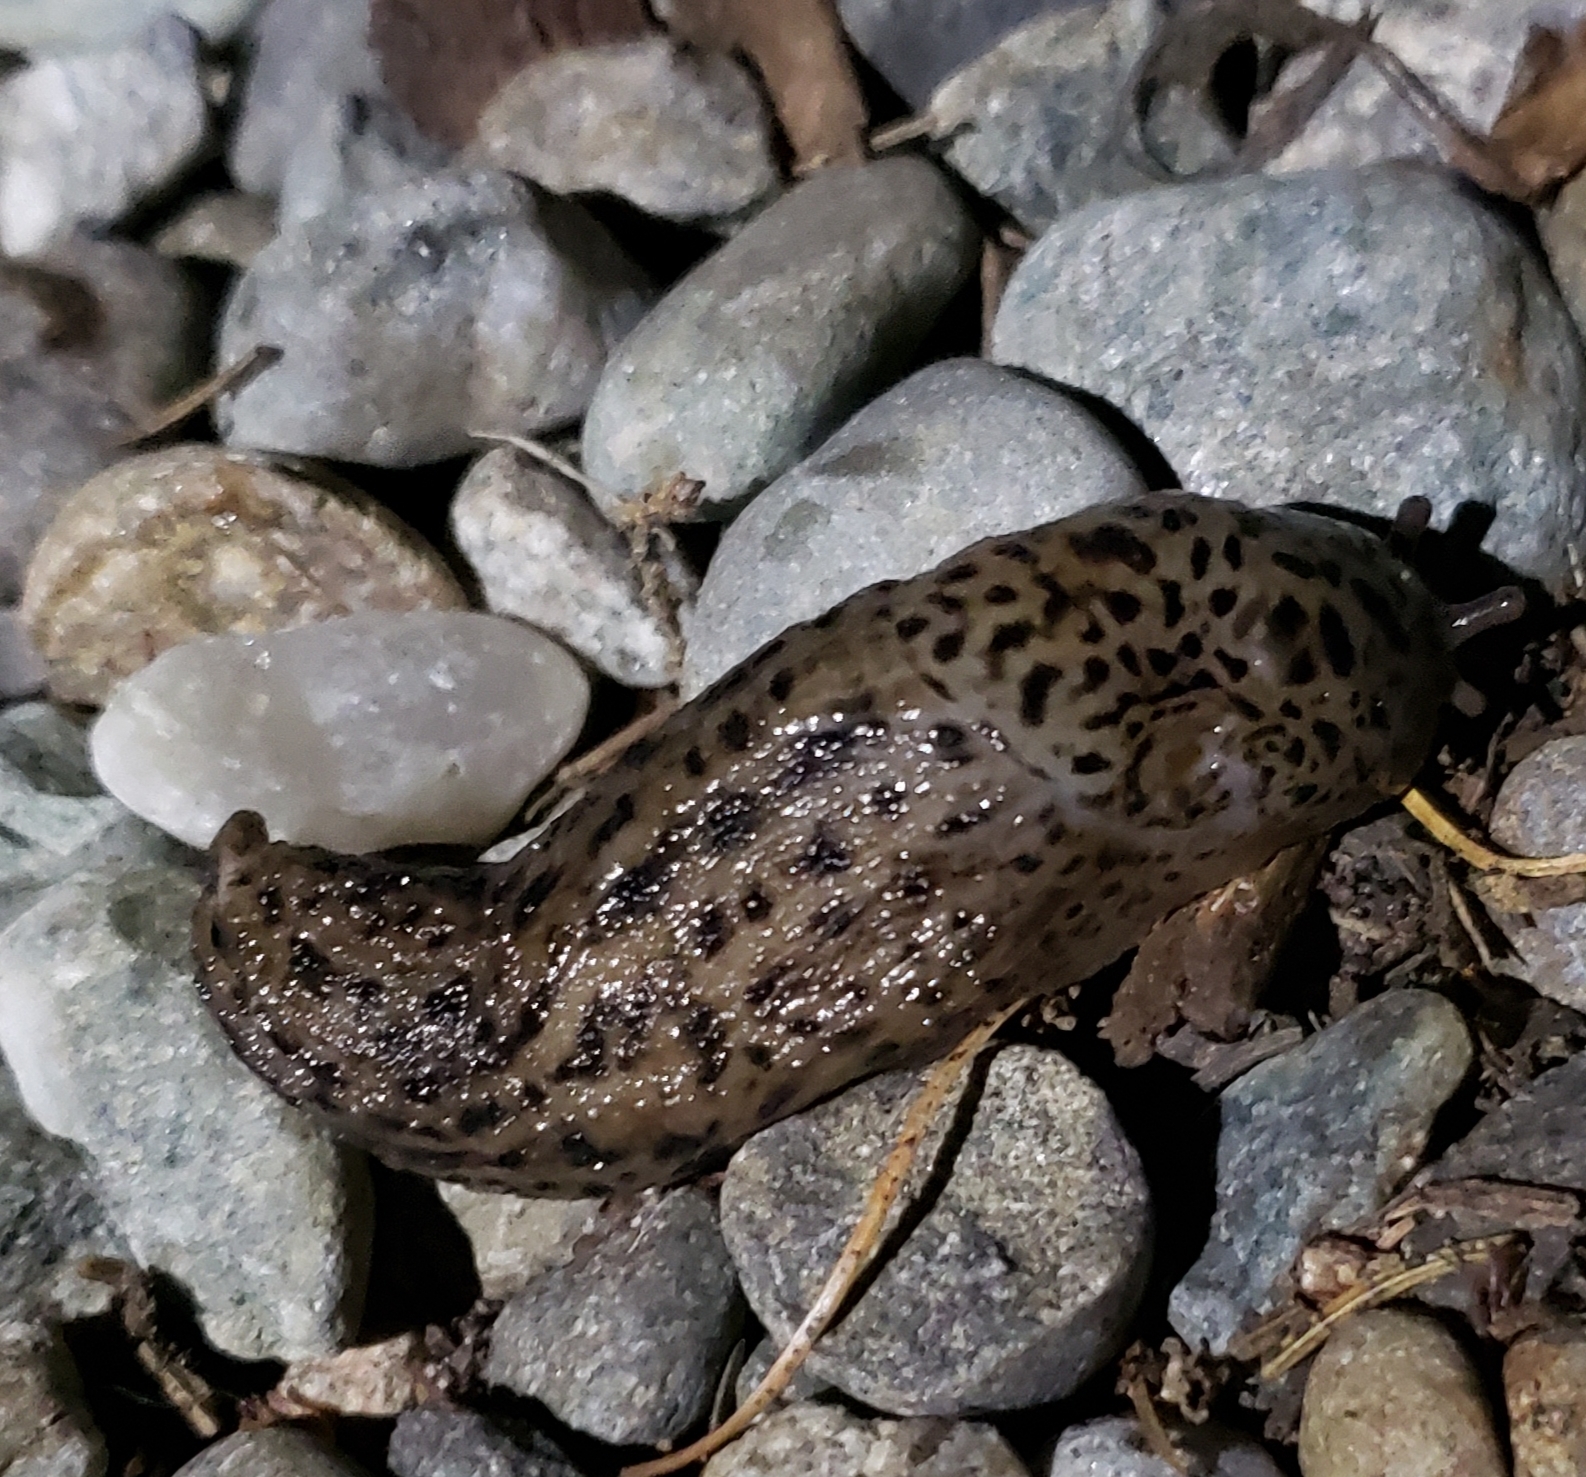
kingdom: Animalia
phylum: Mollusca
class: Gastropoda
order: Stylommatophora
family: Limacidae
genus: Limax
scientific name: Limax maximus
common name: Great grey slug
